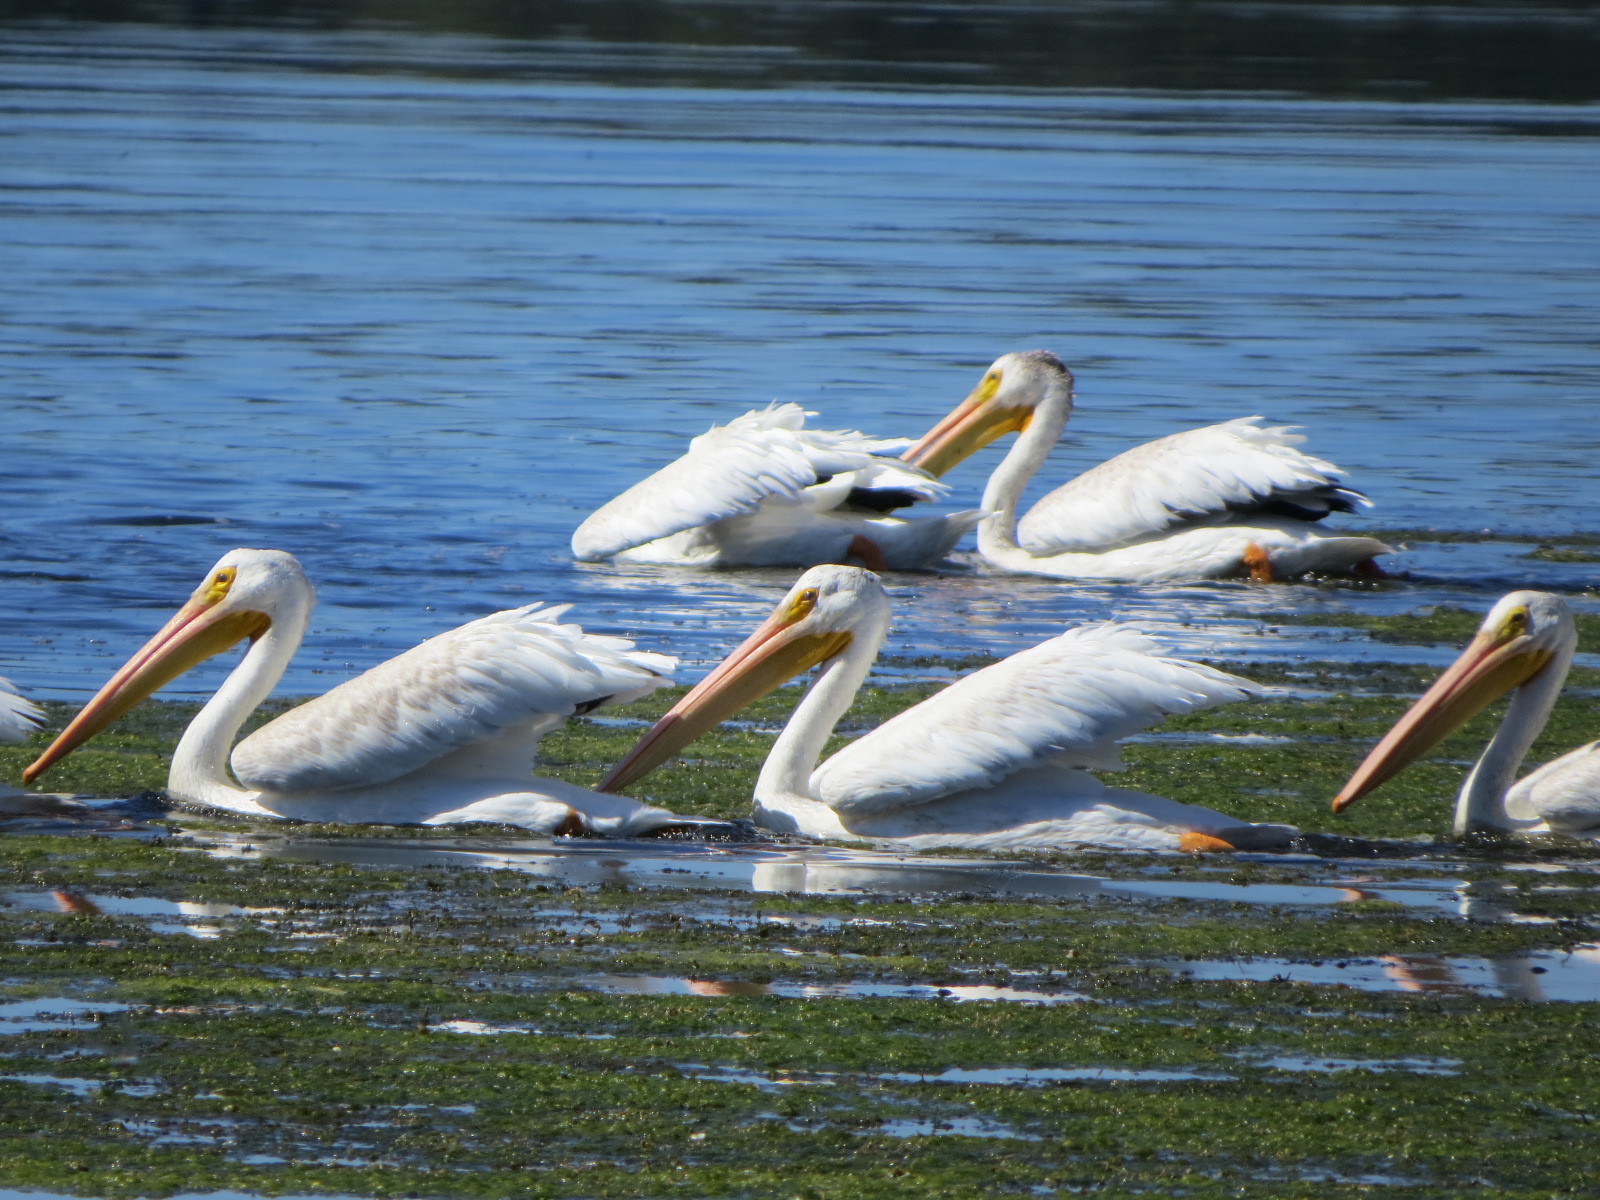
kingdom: Animalia
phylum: Chordata
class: Aves
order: Pelecaniformes
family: Pelecanidae
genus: Pelecanus
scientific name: Pelecanus erythrorhynchos
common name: American white pelican
